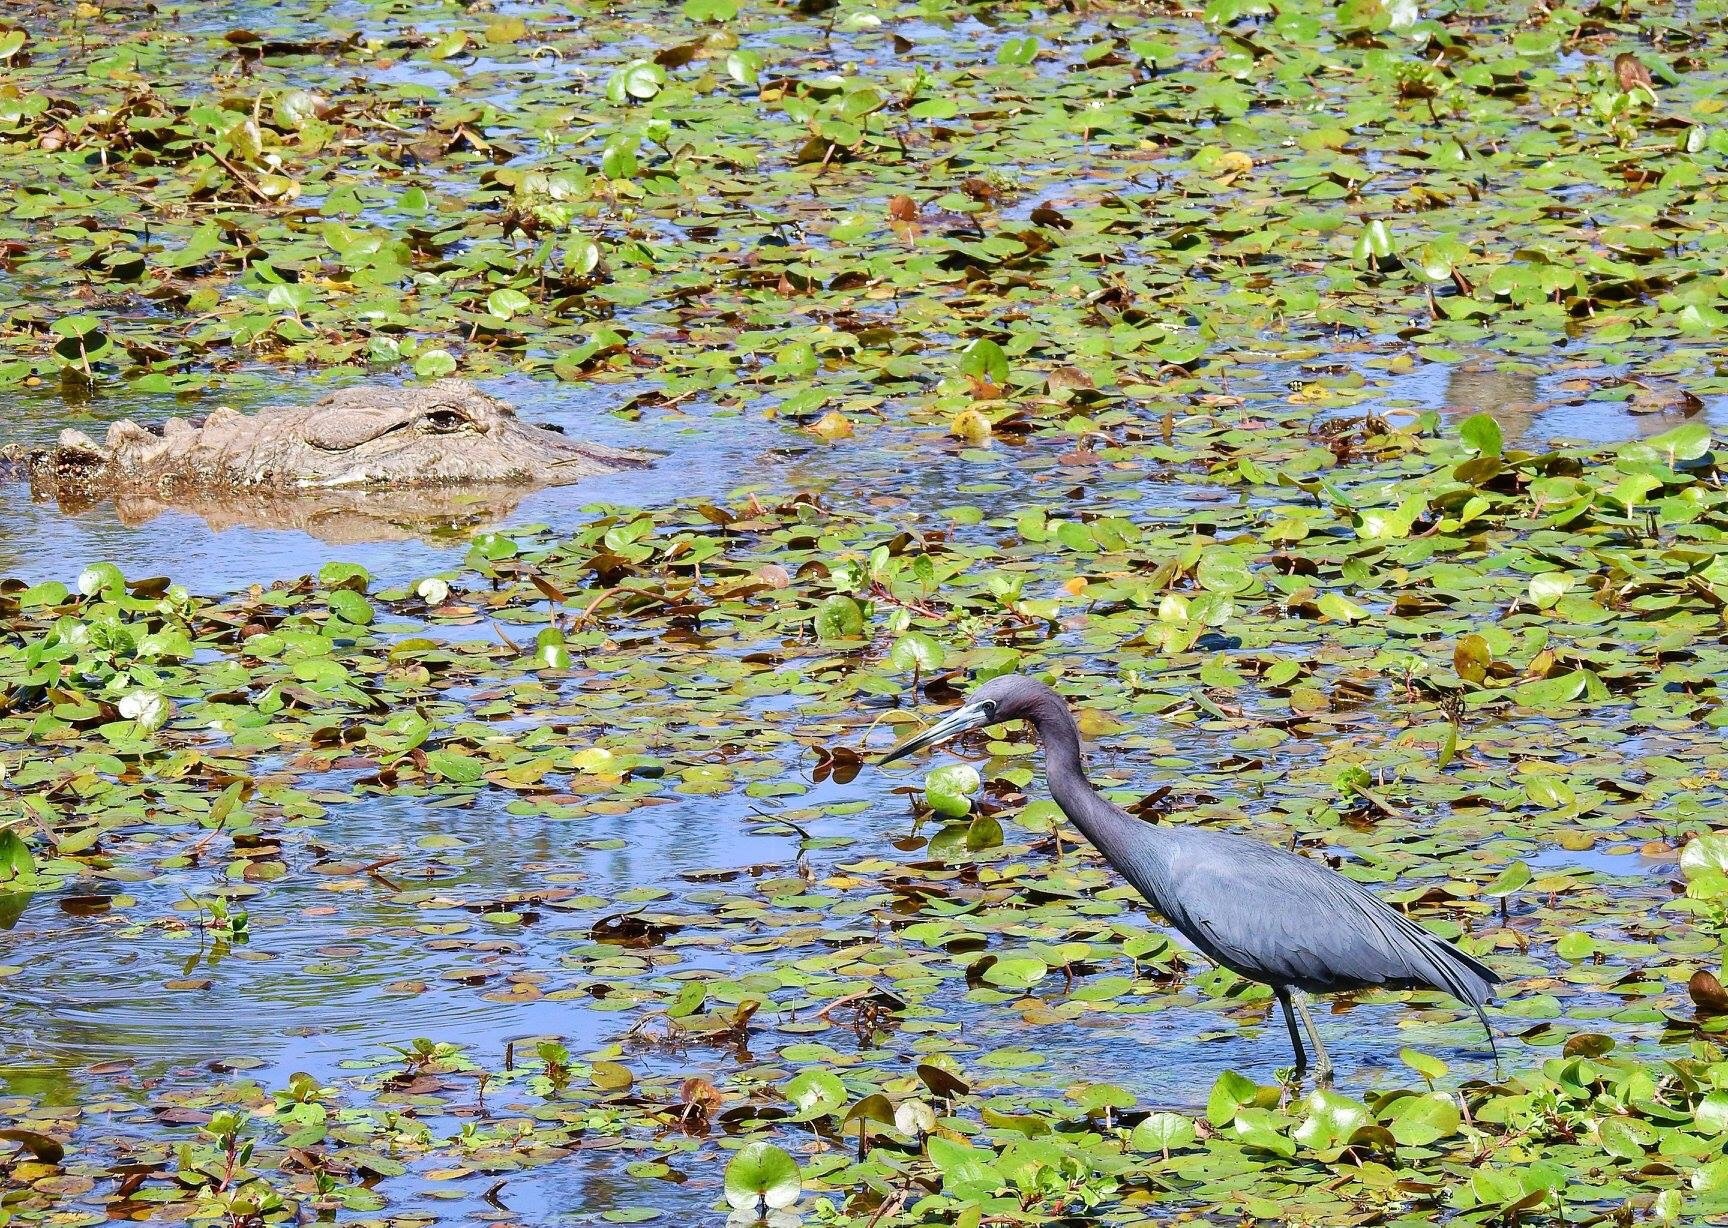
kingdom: Animalia
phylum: Chordata
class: Aves
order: Pelecaniformes
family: Ardeidae
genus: Egretta
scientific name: Egretta caerulea
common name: Little blue heron
